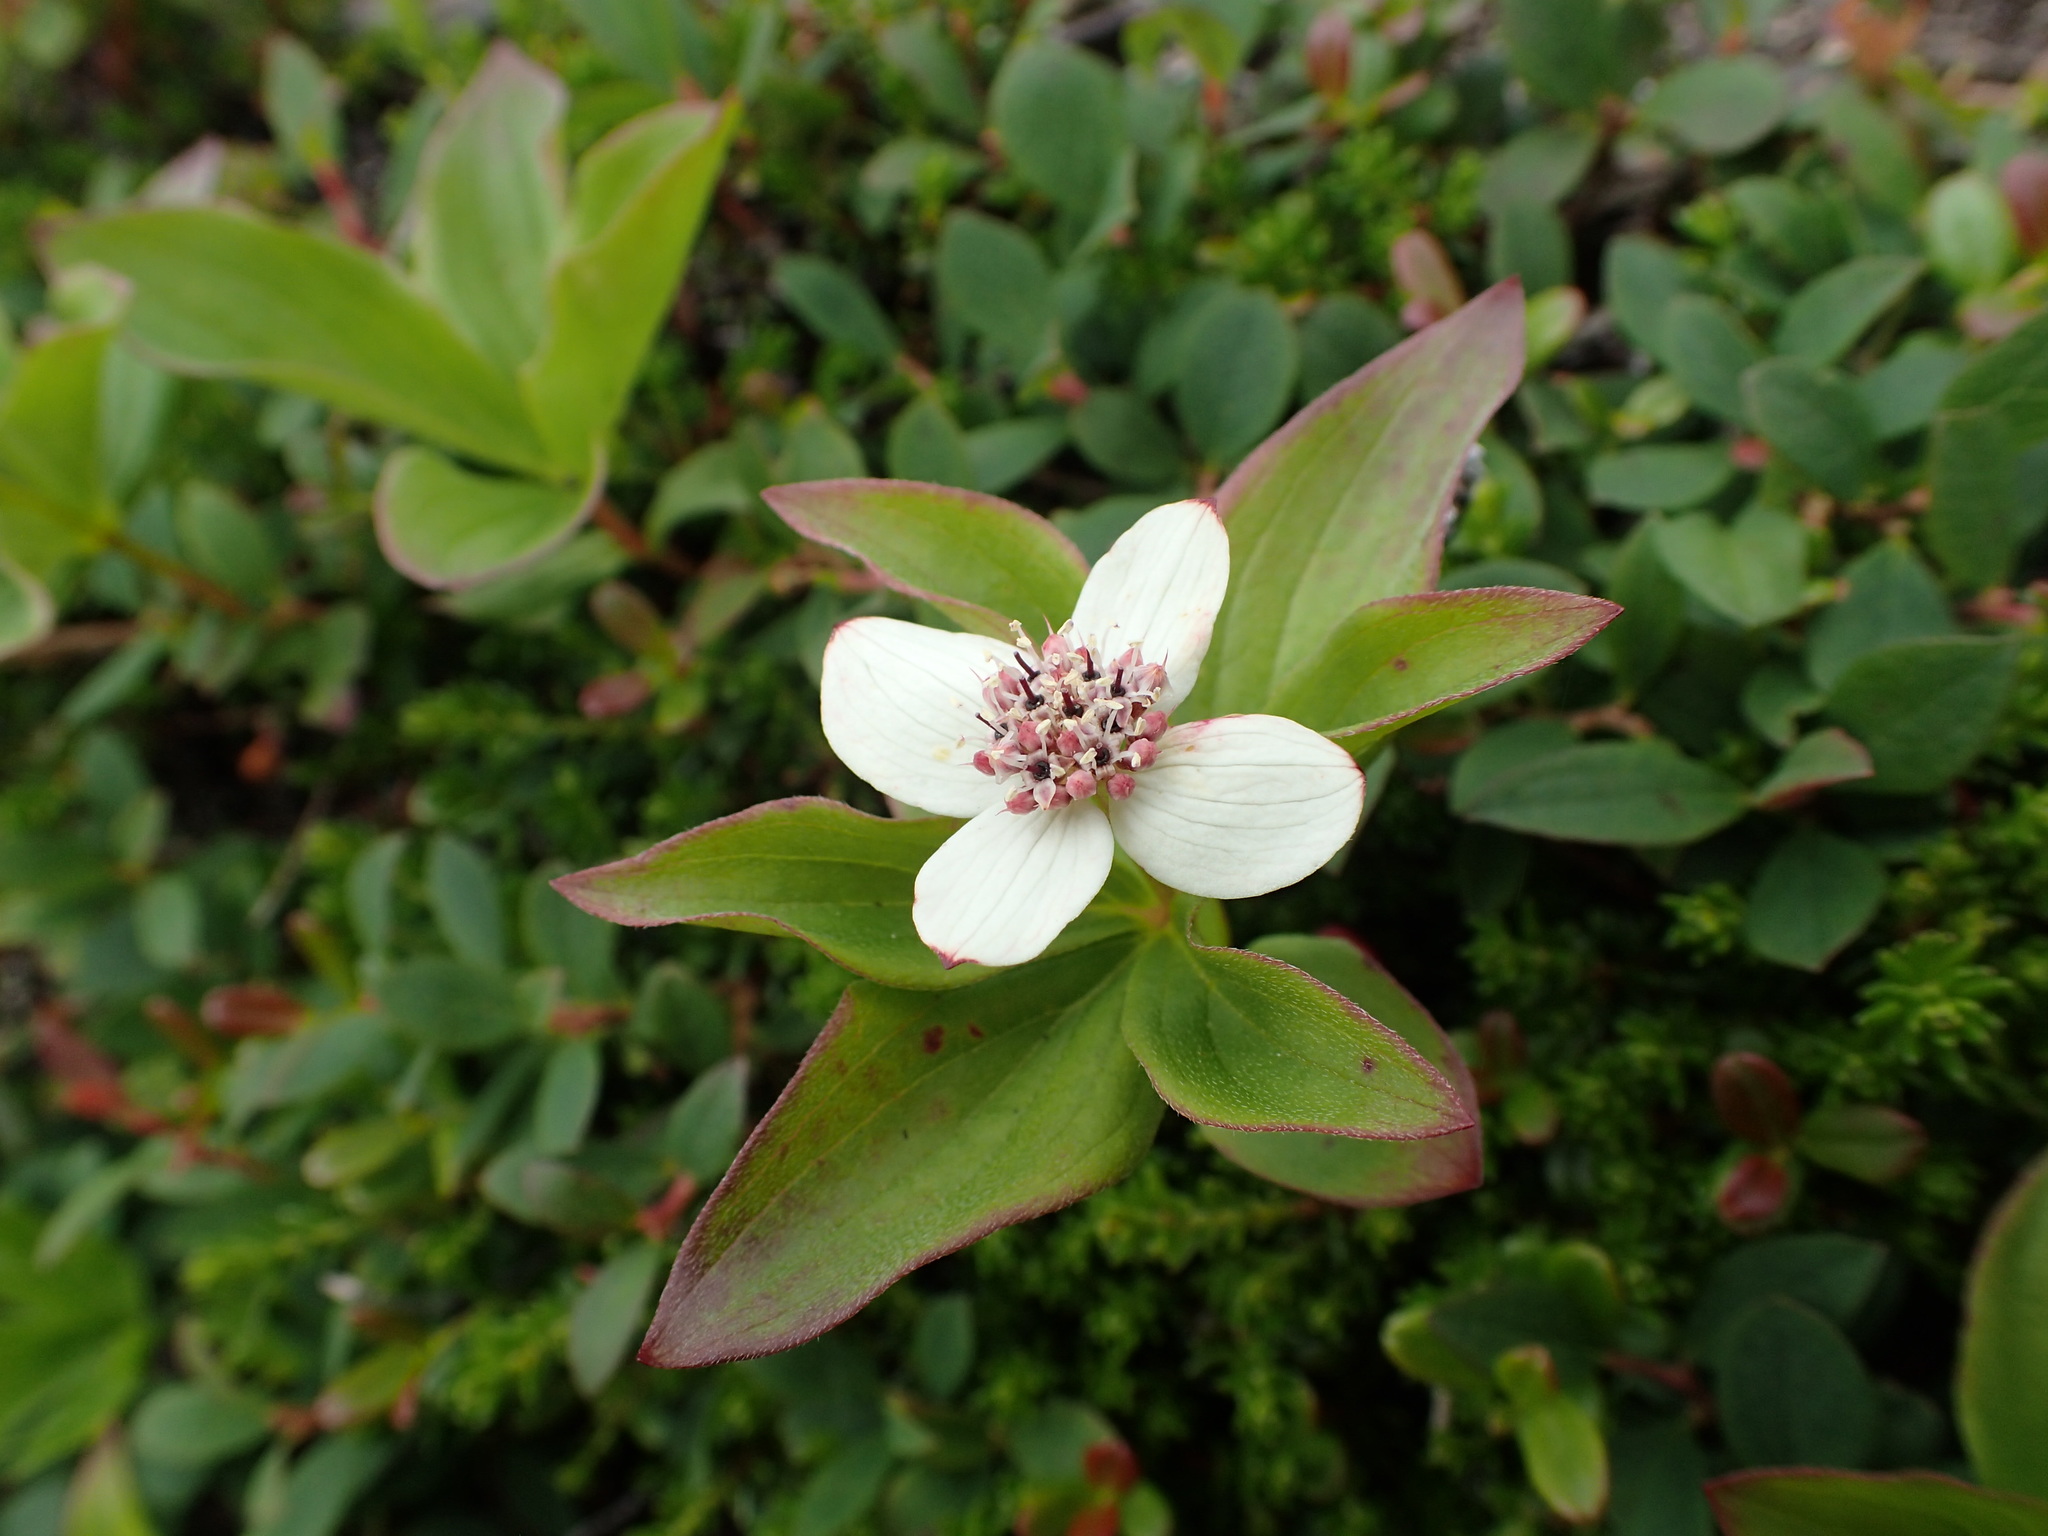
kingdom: Plantae
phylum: Tracheophyta
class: Magnoliopsida
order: Cornales
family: Cornaceae
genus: Cornus
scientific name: Cornus unalaschkensis
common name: Alaska bunchberry
